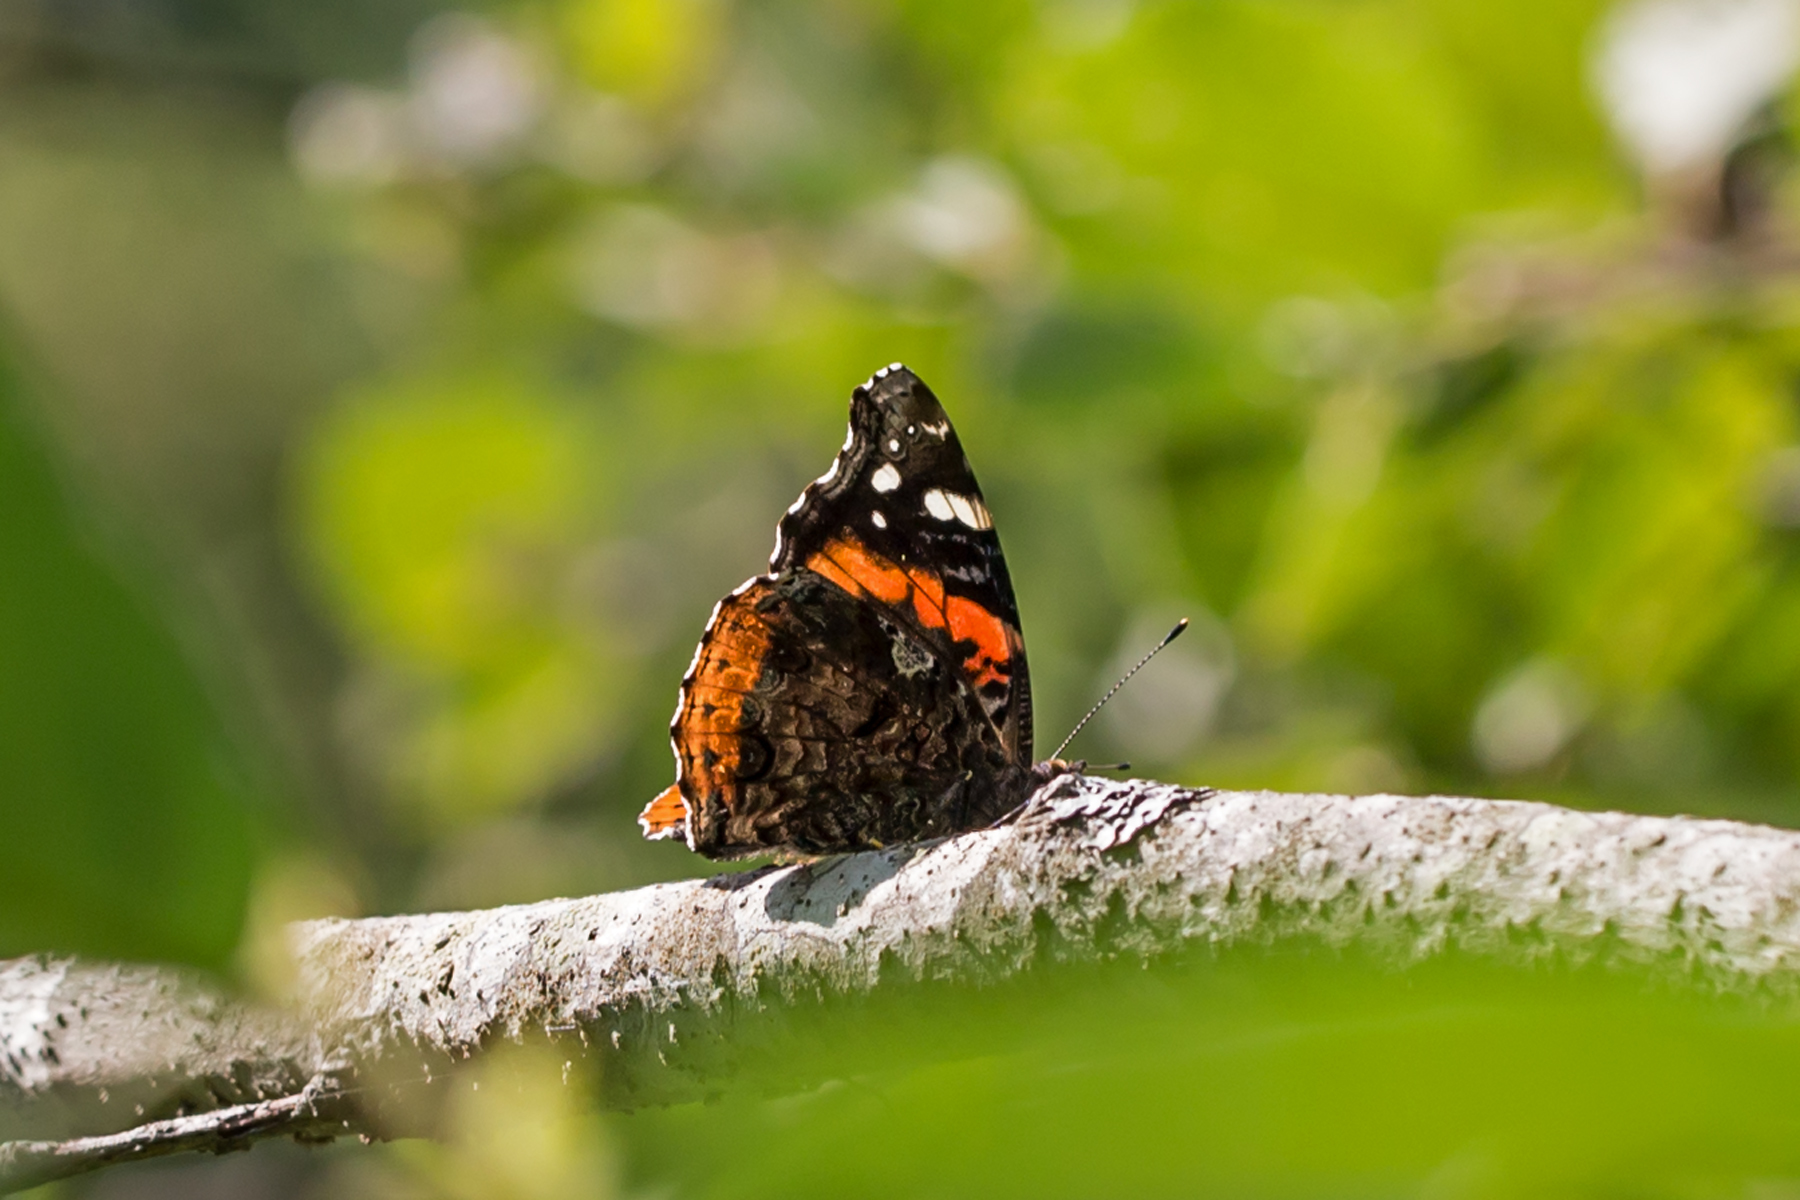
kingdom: Animalia
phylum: Arthropoda
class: Insecta
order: Lepidoptera
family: Nymphalidae
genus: Vanessa
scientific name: Vanessa atalanta
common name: Red admiral
